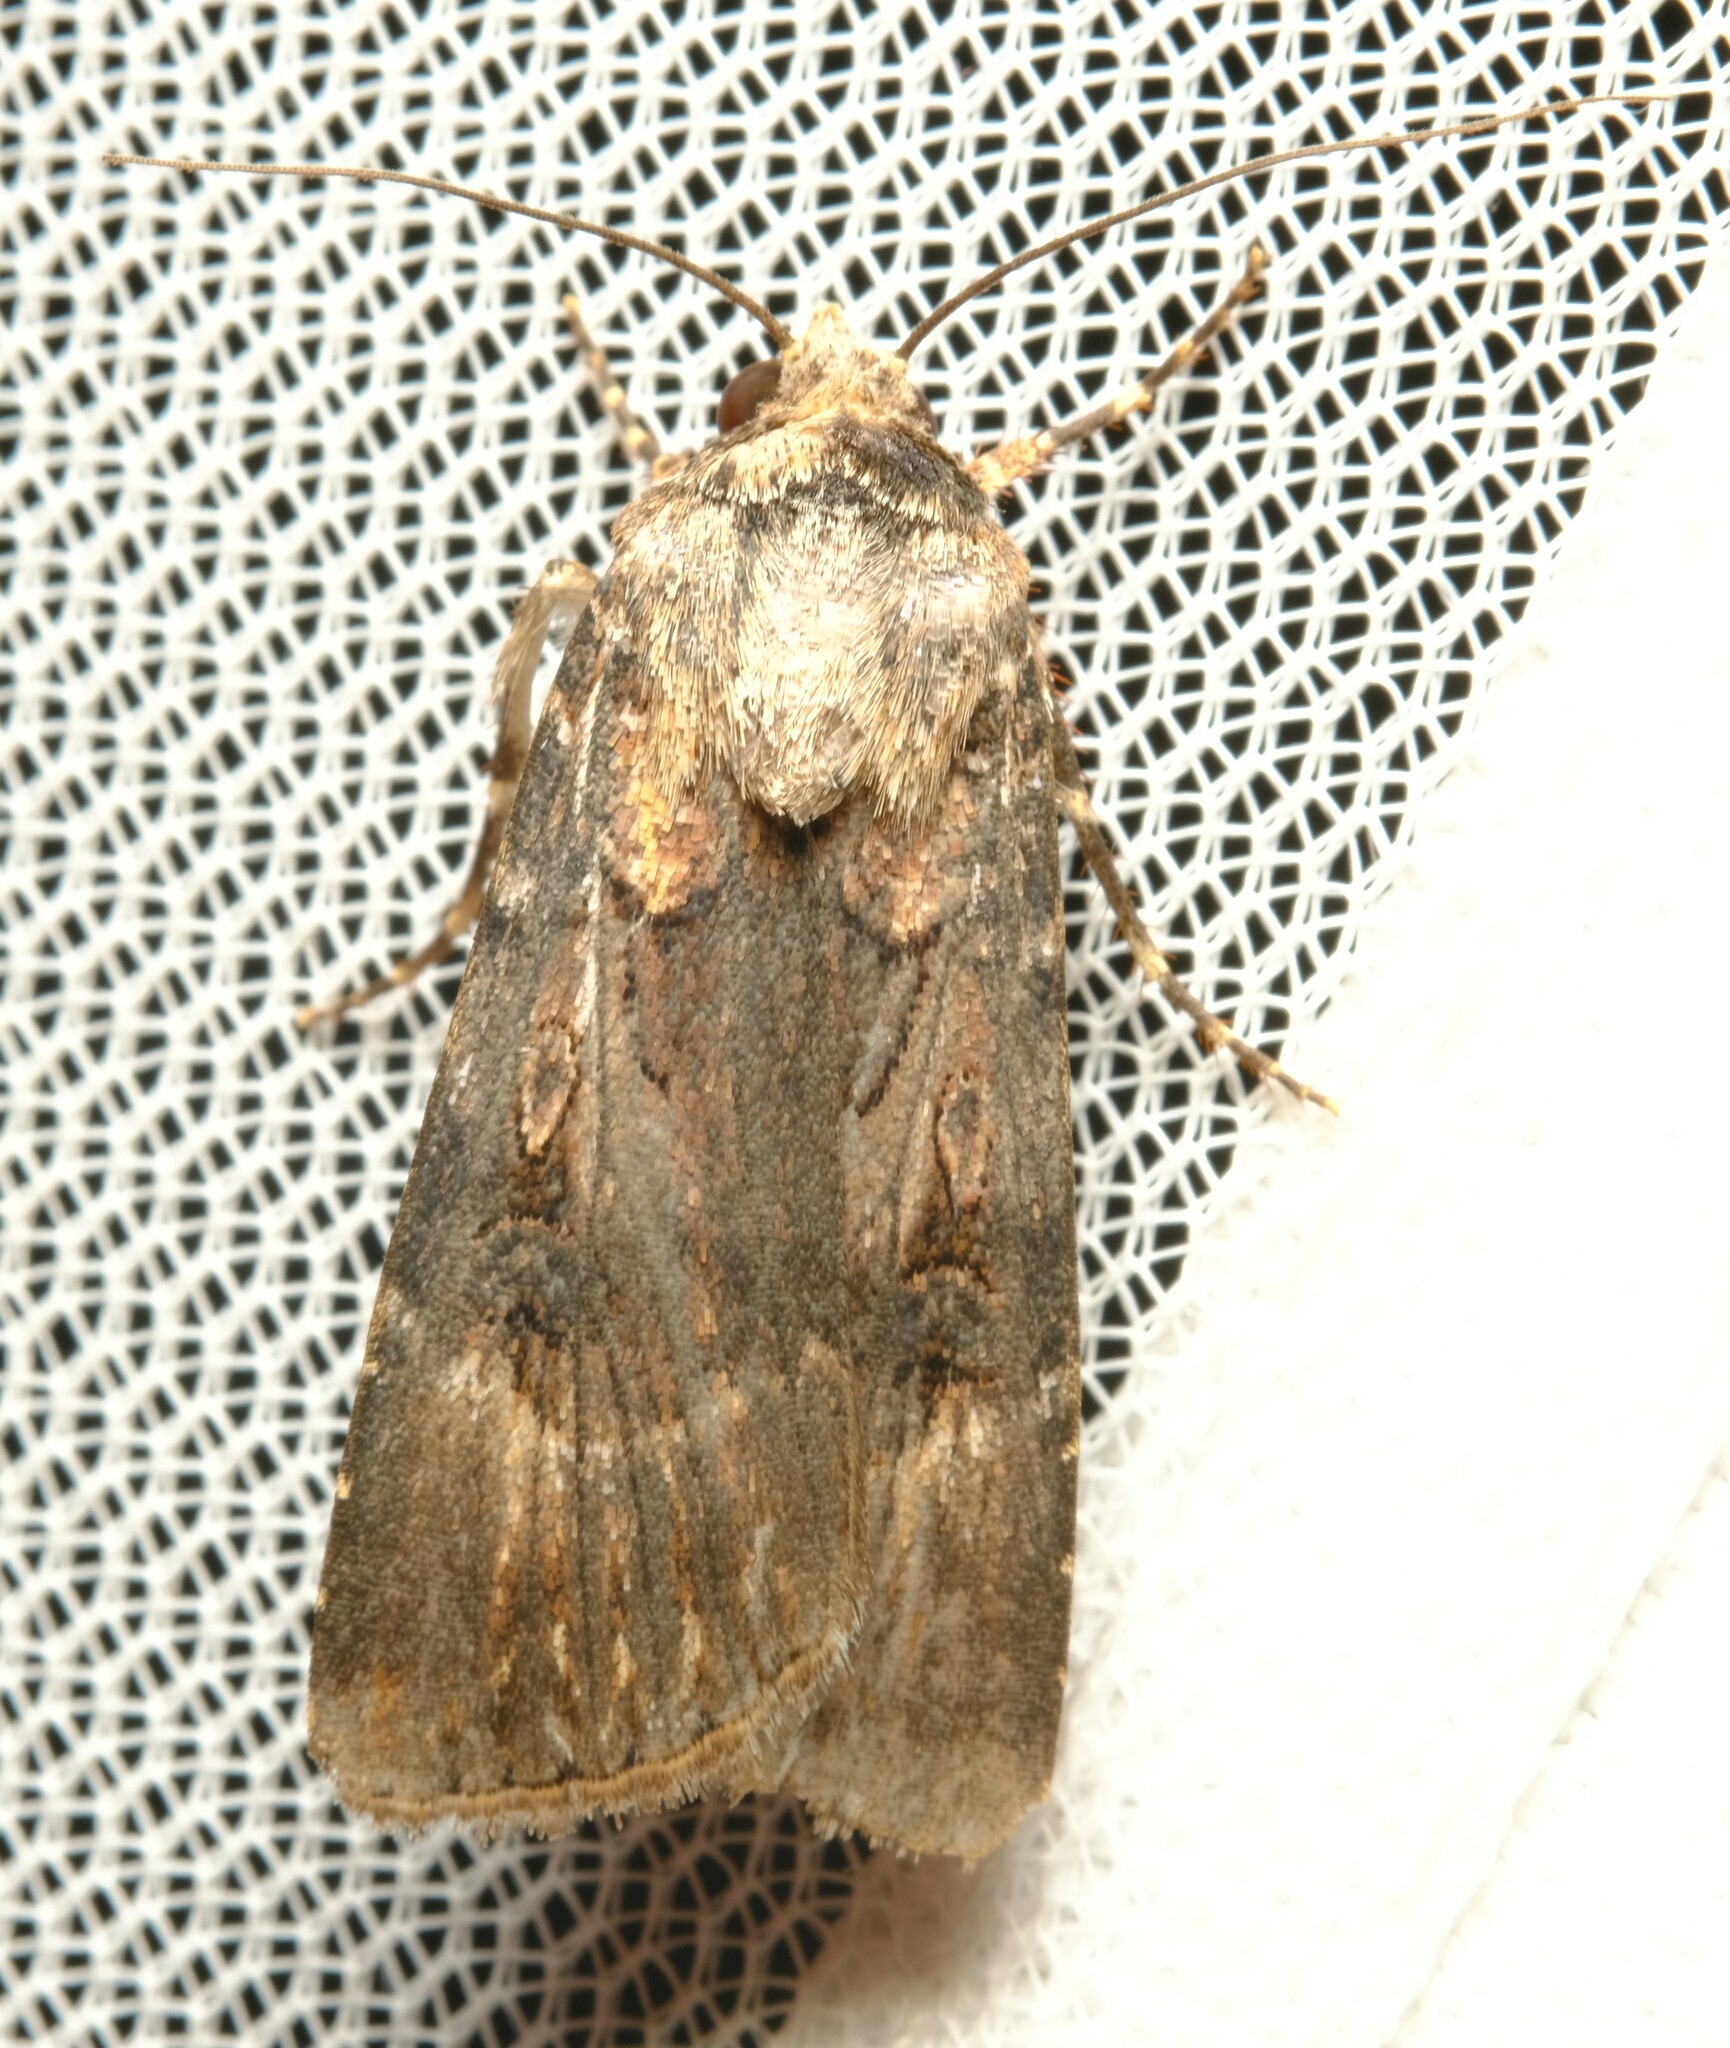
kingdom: Animalia
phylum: Arthropoda
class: Insecta
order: Lepidoptera
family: Noctuidae
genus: Agrotis
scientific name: Agrotis munda
